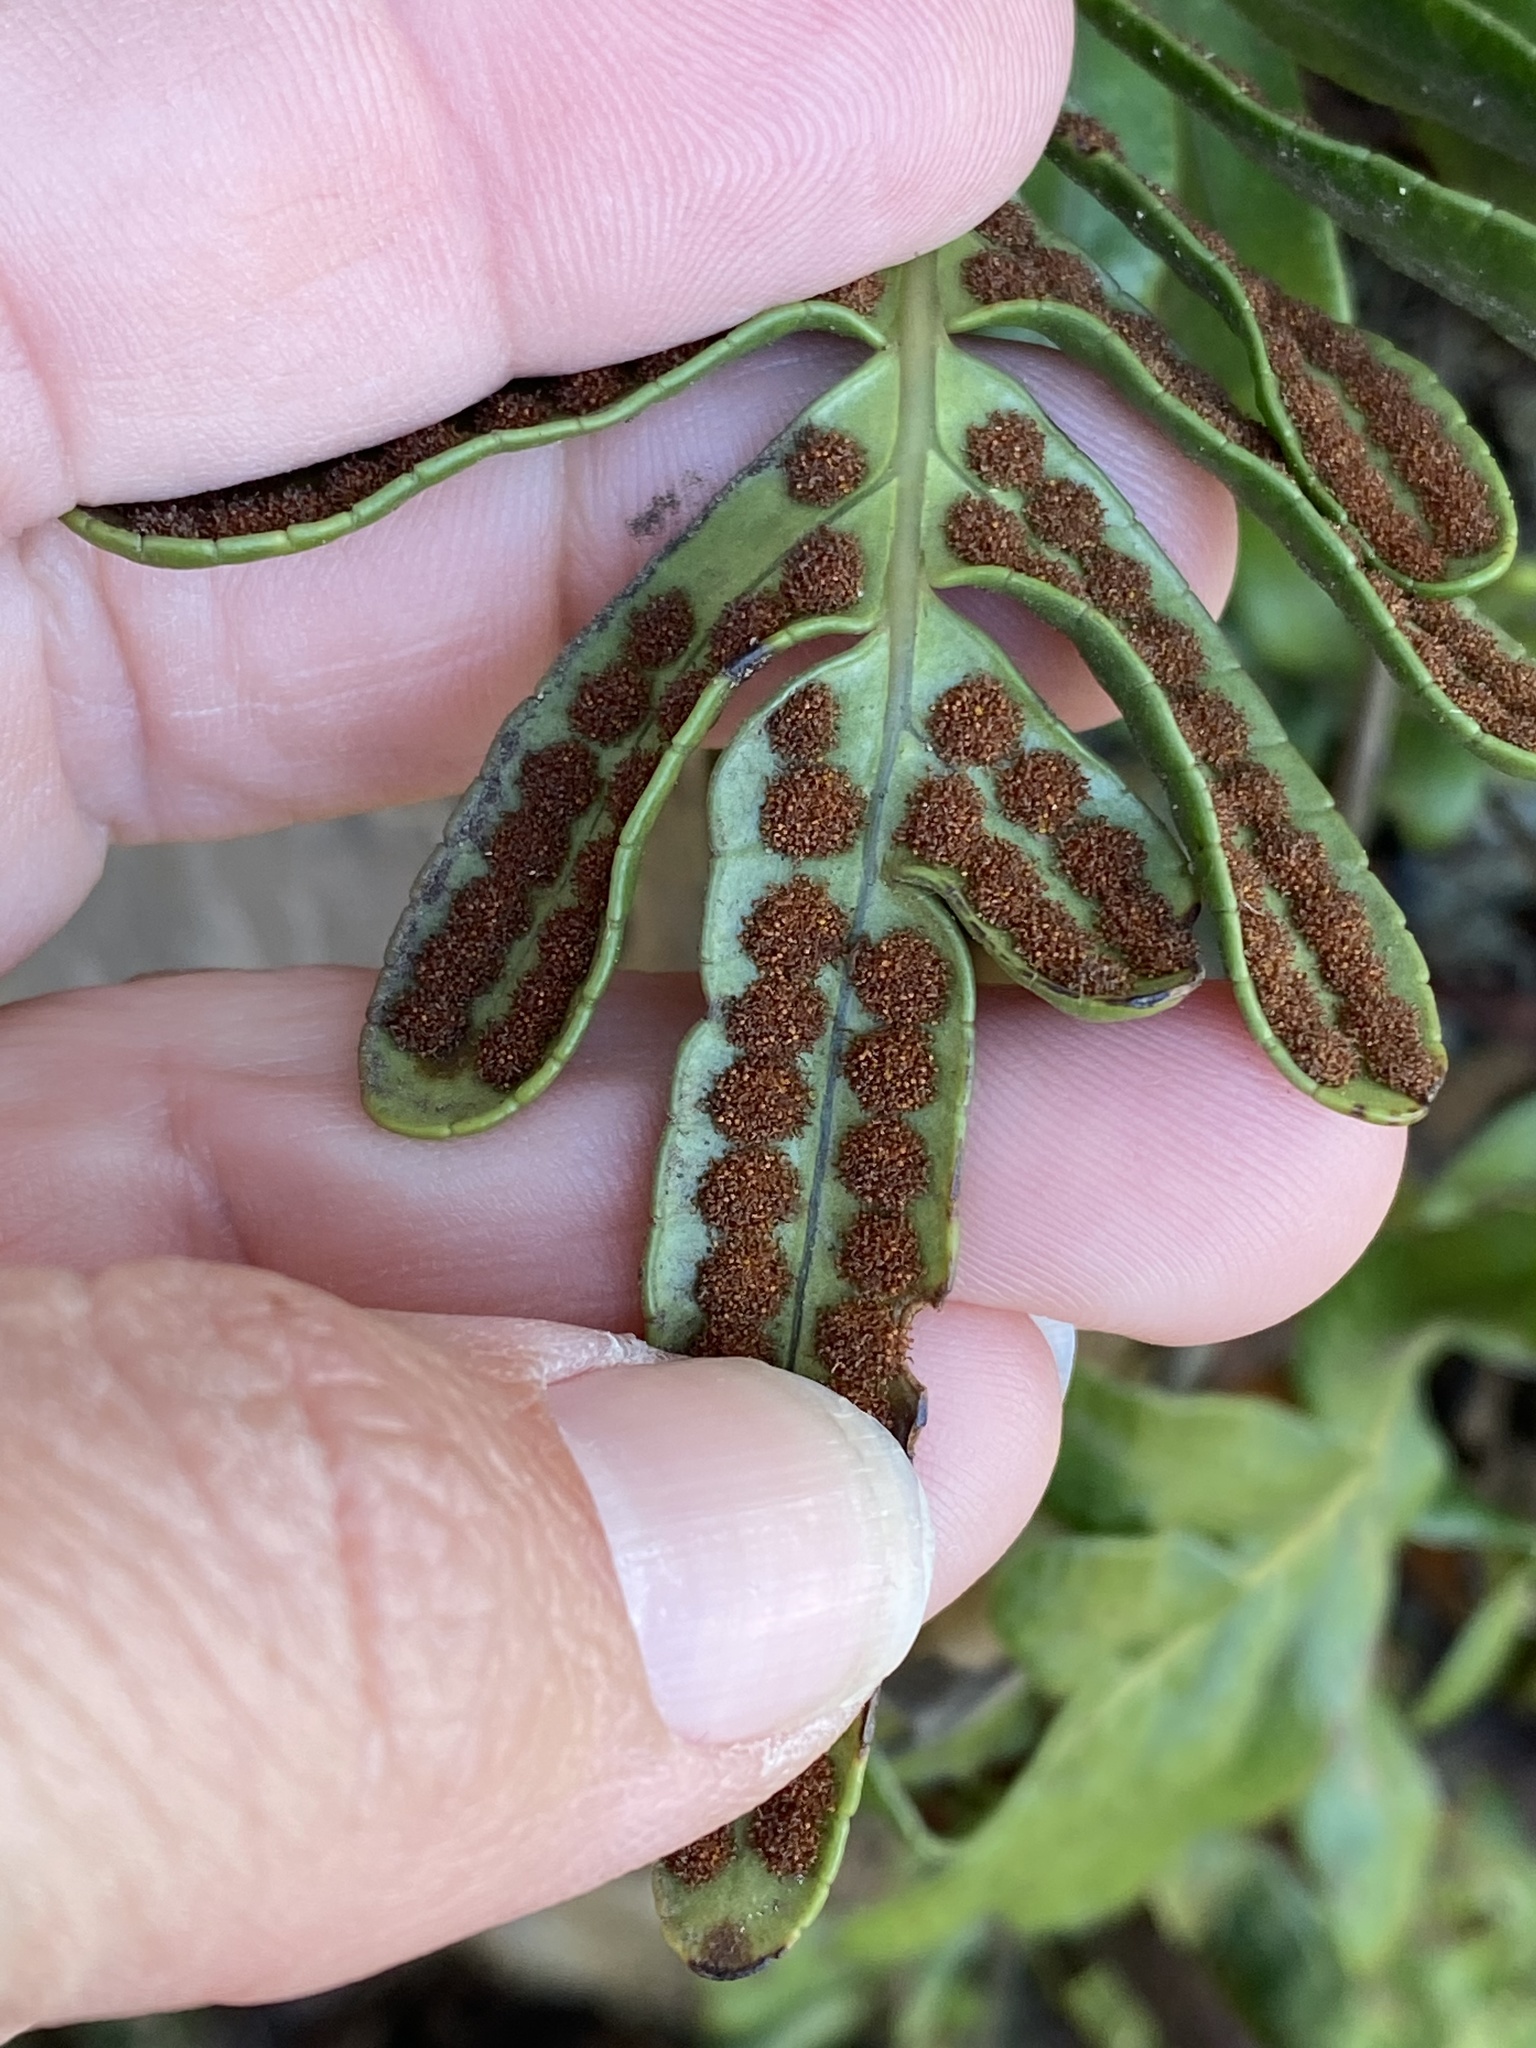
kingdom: Plantae
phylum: Tracheophyta
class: Polypodiopsida
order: Polypodiales
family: Polypodiaceae
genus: Polypodium
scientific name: Polypodium scouleri
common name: Scouler's polypody
